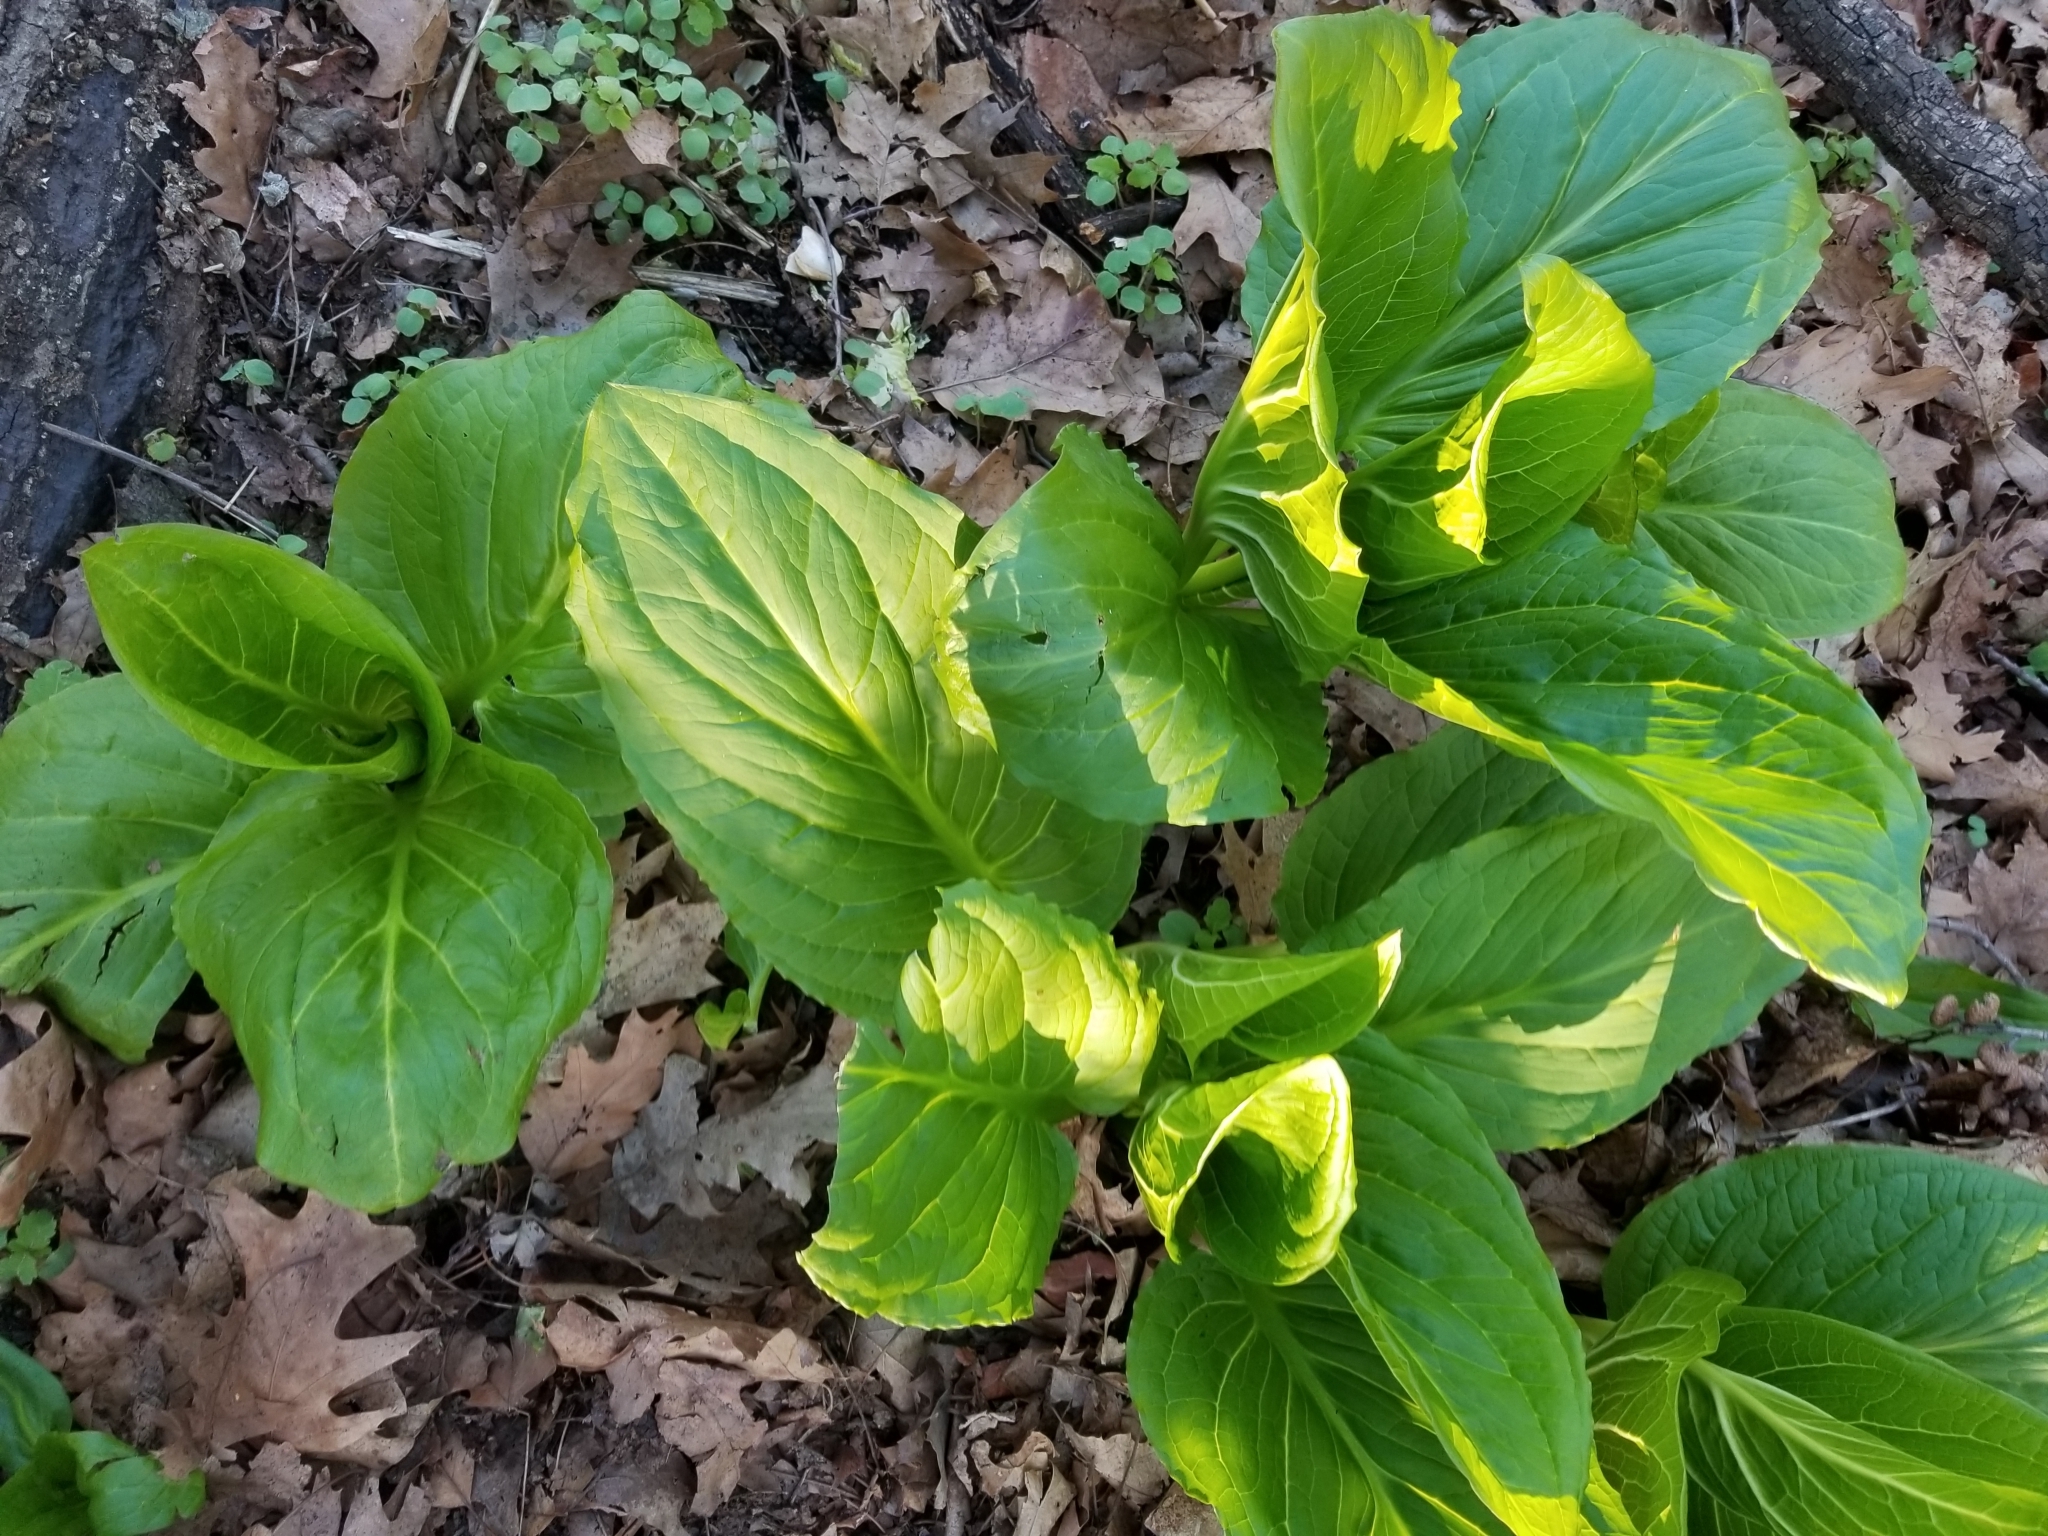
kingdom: Plantae
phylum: Tracheophyta
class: Liliopsida
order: Alismatales
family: Araceae
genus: Symplocarpus
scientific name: Symplocarpus foetidus
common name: Eastern skunk cabbage
